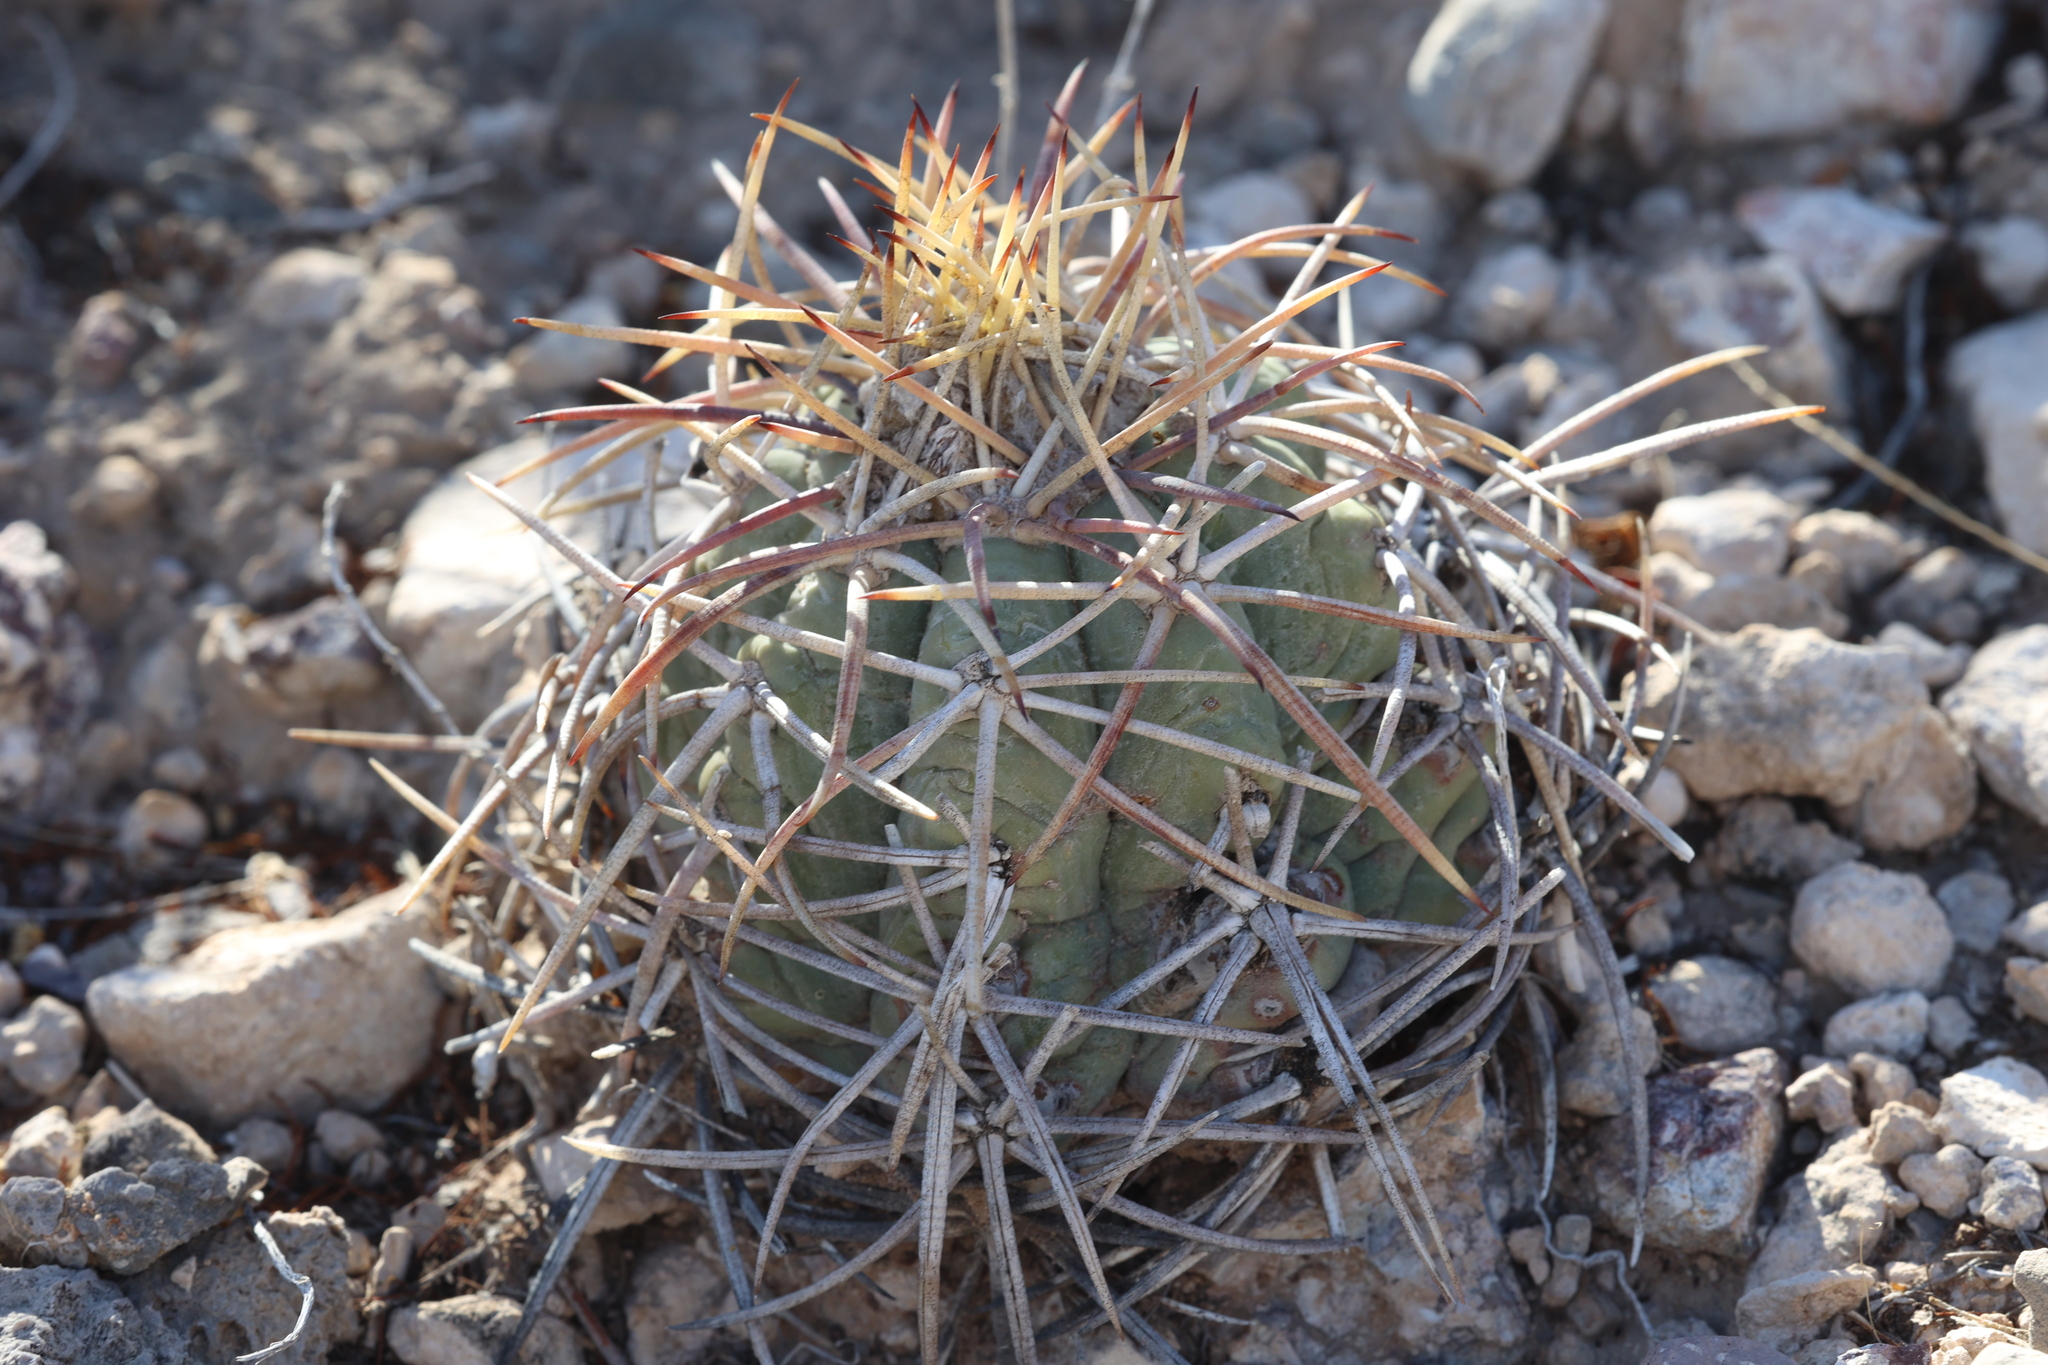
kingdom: Plantae
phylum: Tracheophyta
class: Magnoliopsida
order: Caryophyllales
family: Cactaceae
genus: Echinocactus
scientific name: Echinocactus horizonthalonius
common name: Devilshead
